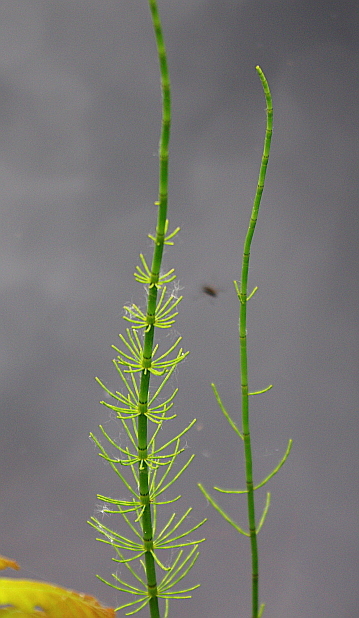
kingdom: Plantae
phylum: Tracheophyta
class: Polypodiopsida
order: Equisetales
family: Equisetaceae
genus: Equisetum
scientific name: Equisetum fluviatile
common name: Water horsetail
